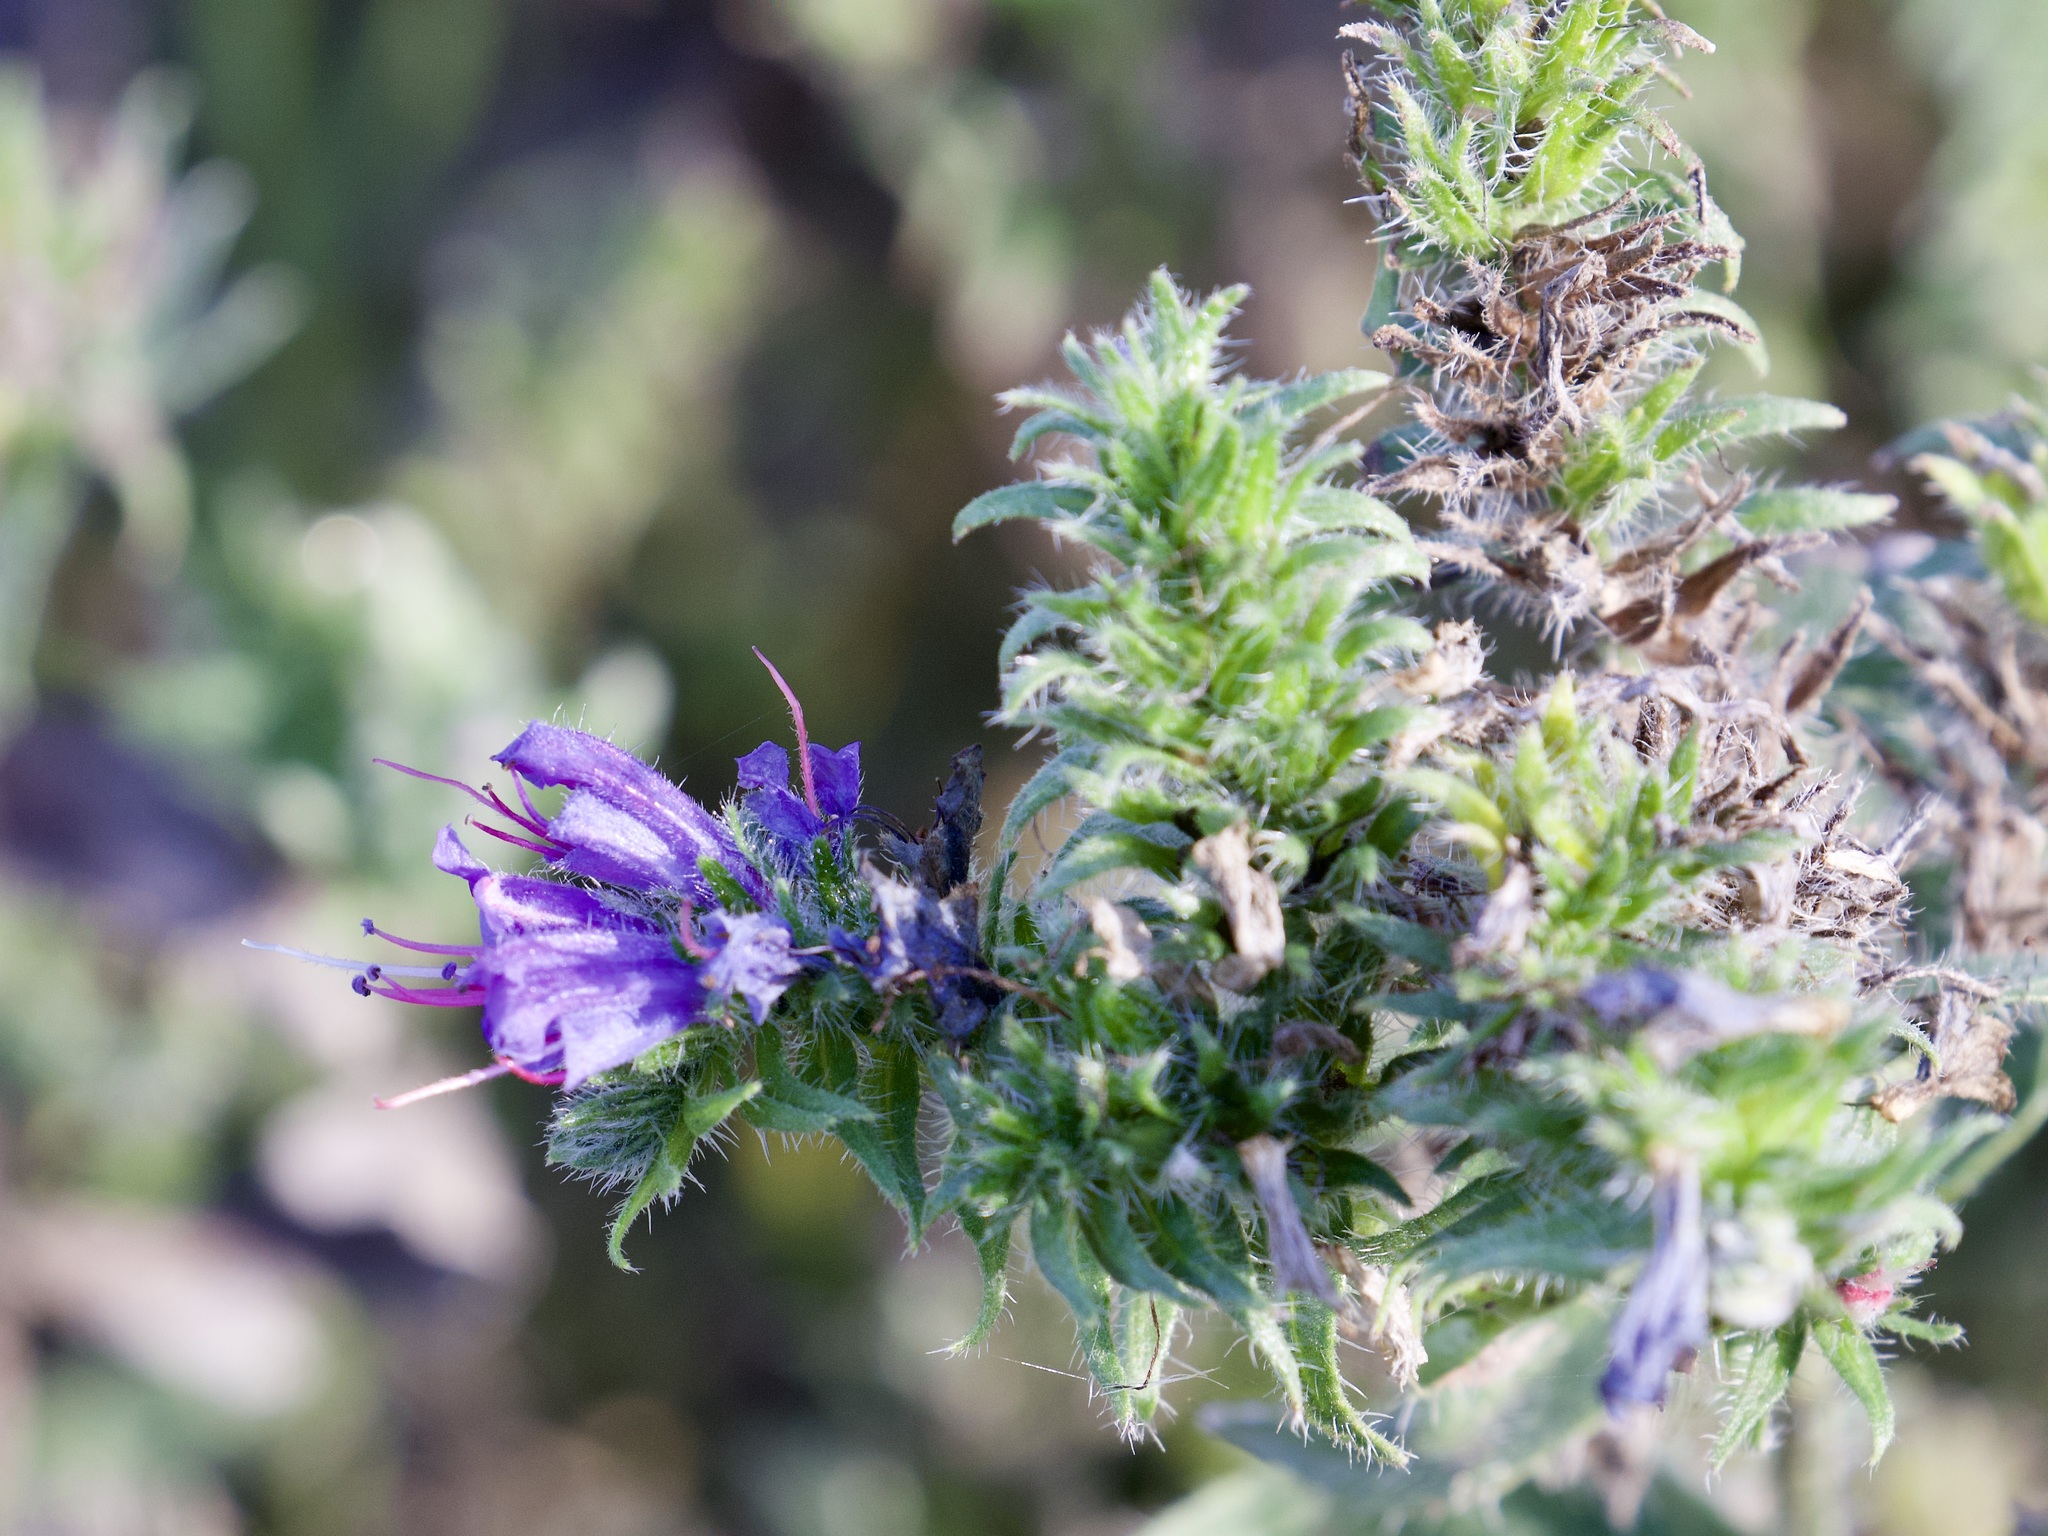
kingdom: Plantae
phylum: Tracheophyta
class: Magnoliopsida
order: Boraginales
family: Boraginaceae
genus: Echium
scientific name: Echium vulgare
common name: Common viper's bugloss
